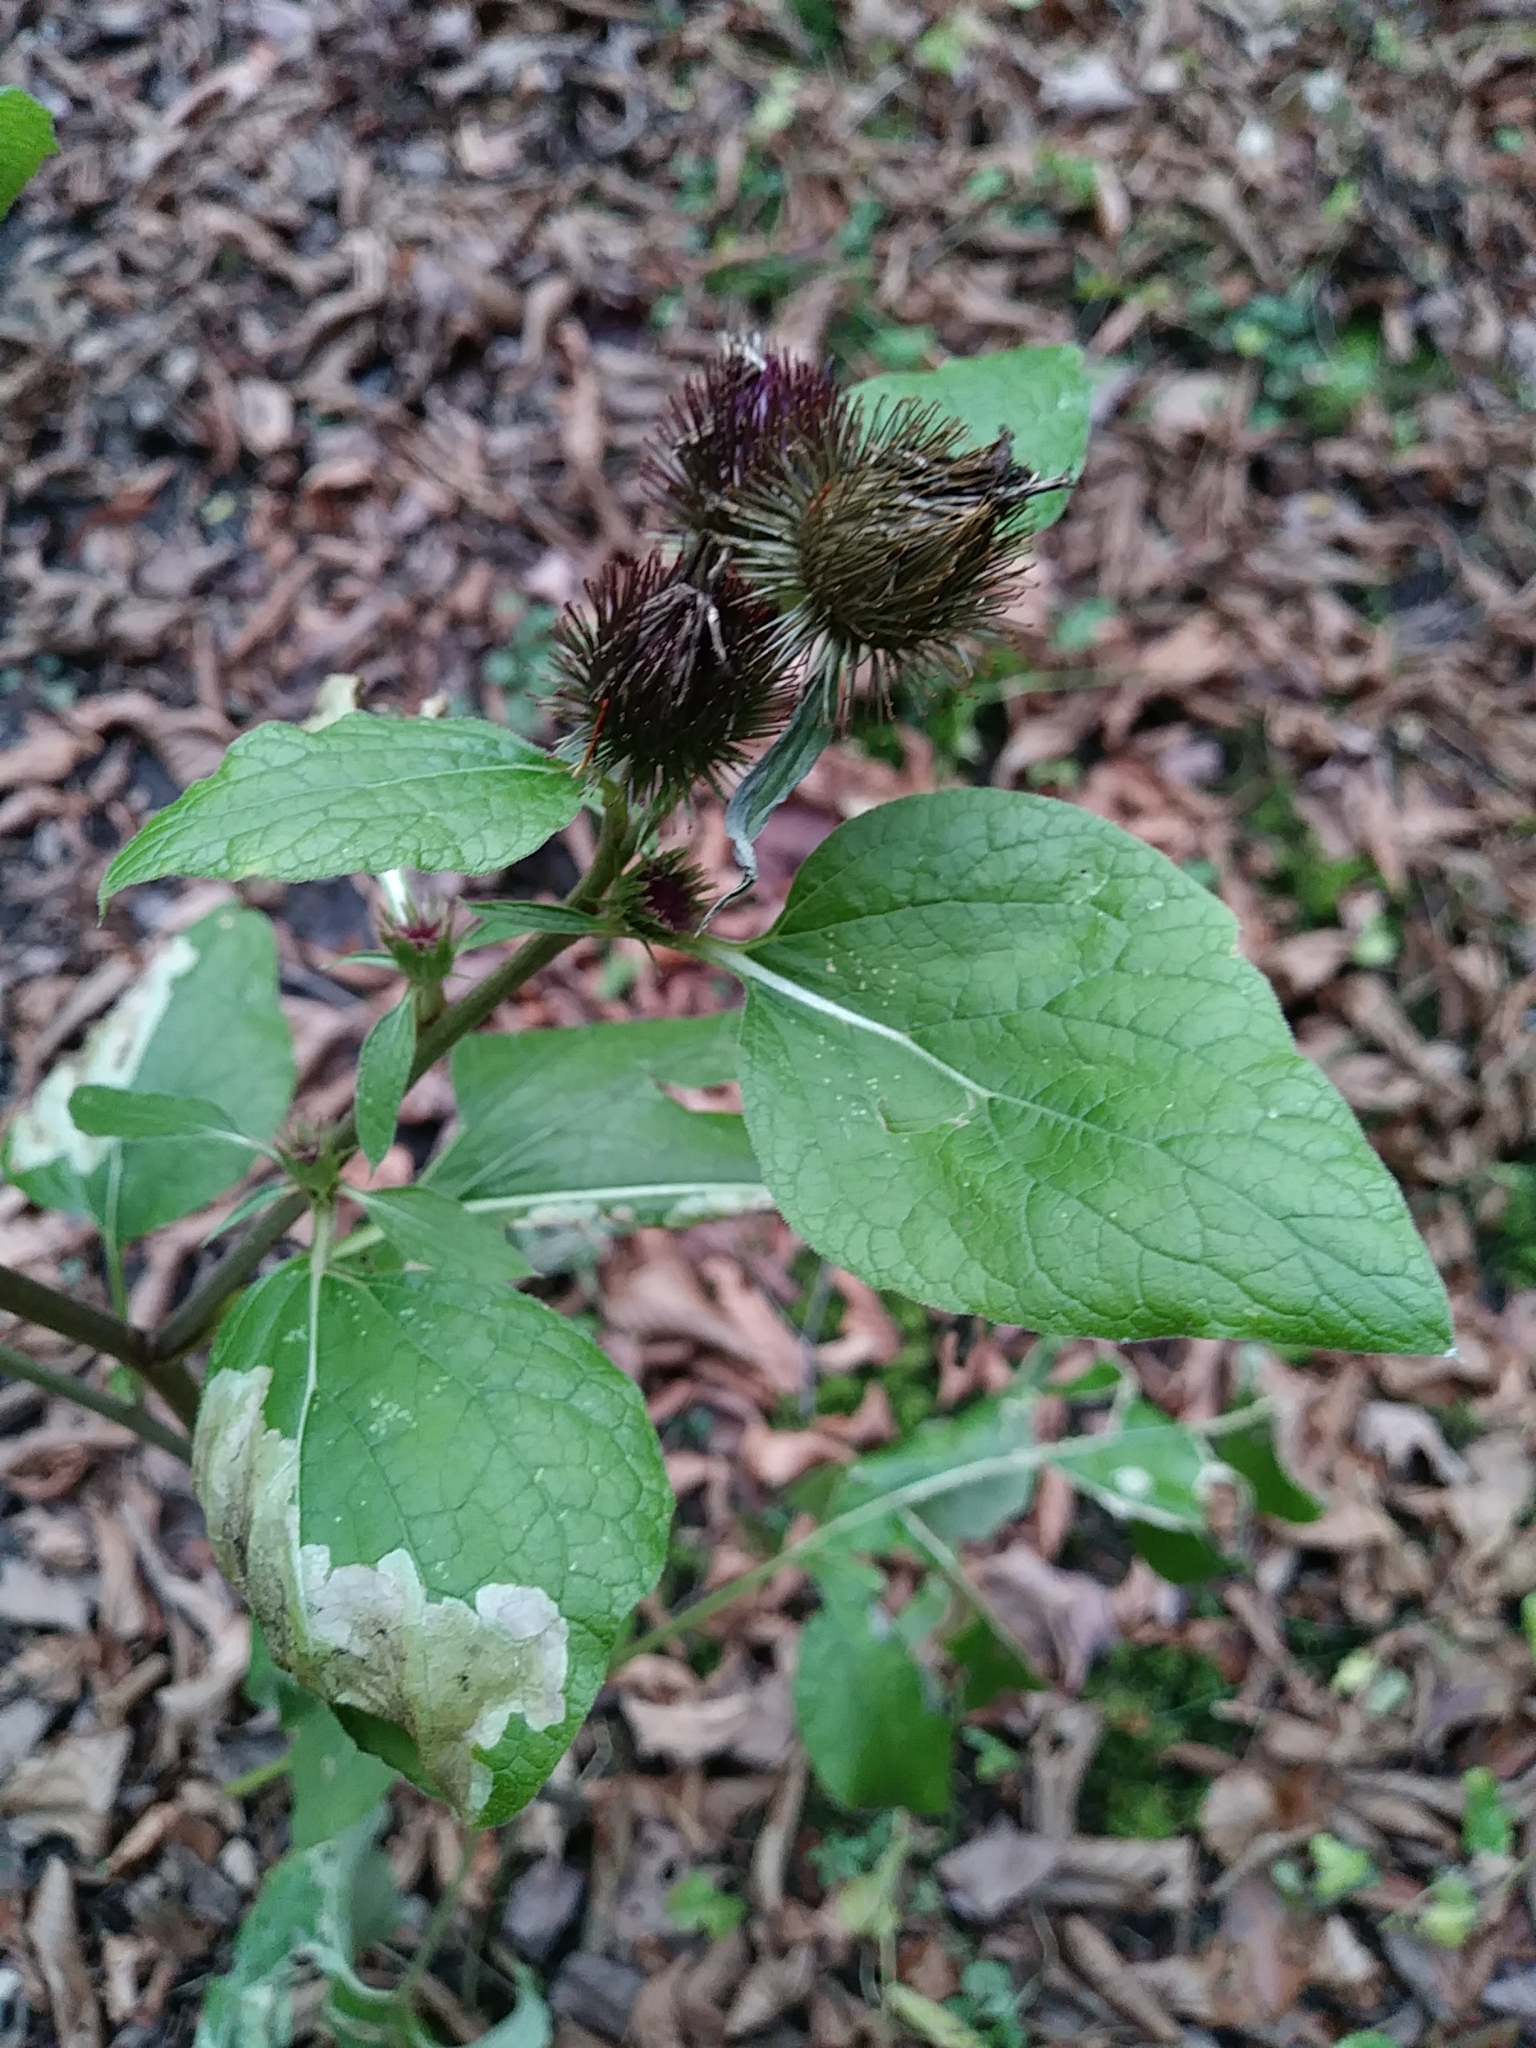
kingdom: Plantae
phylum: Tracheophyta
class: Magnoliopsida
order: Asterales
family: Asteraceae
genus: Arctium
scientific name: Arctium lappa
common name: Greater burdock
